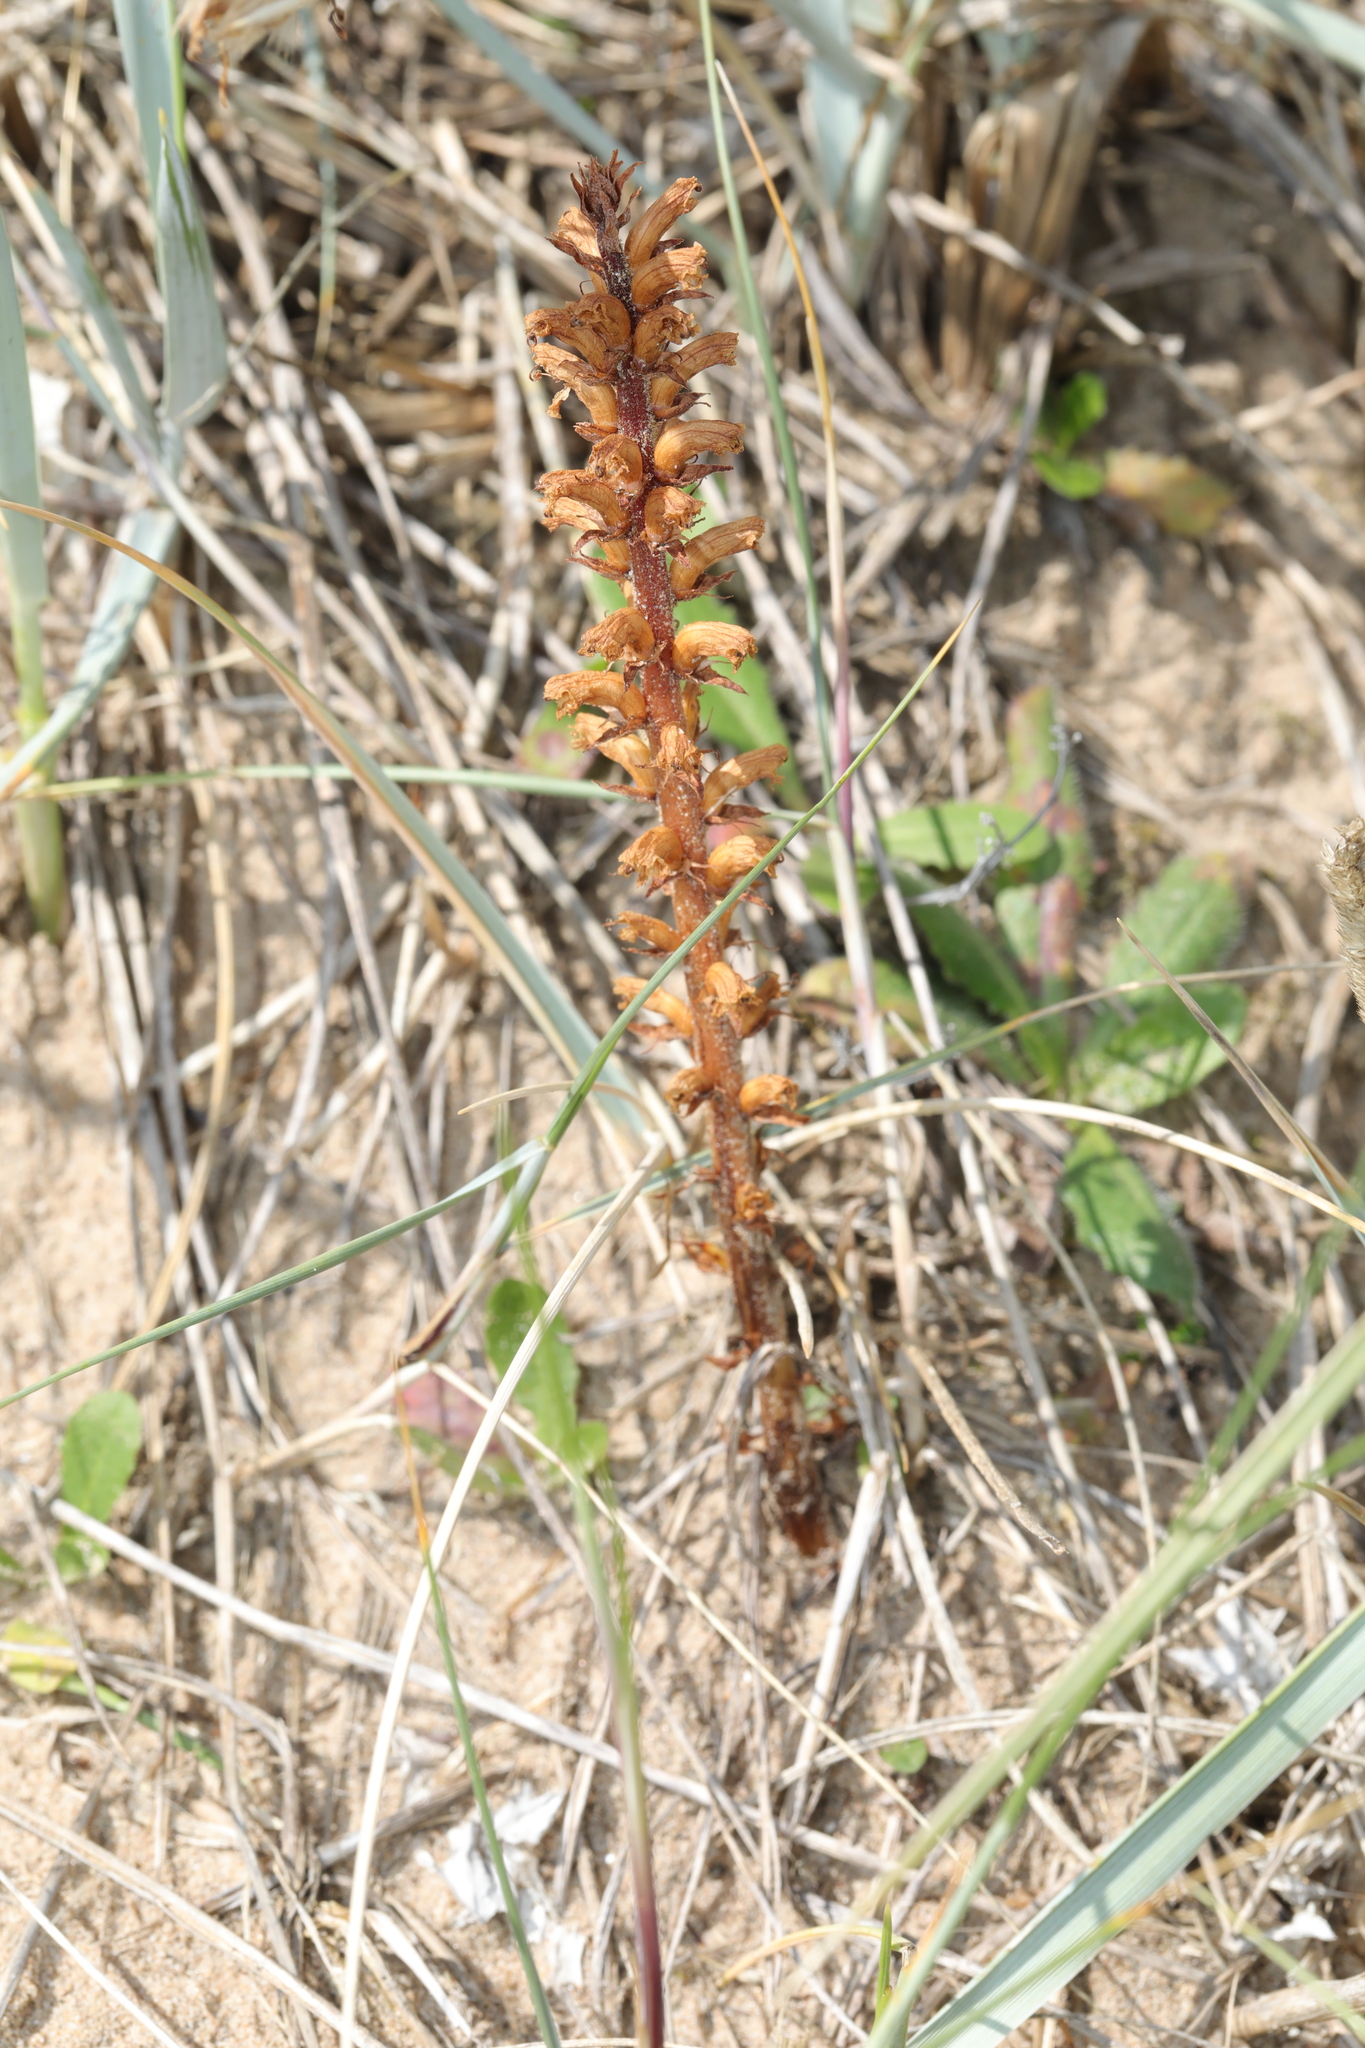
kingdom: Plantae
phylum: Tracheophyta
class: Magnoliopsida
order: Lamiales
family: Orobanchaceae
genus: Orobanche
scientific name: Orobanche minor
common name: Common broomrape
